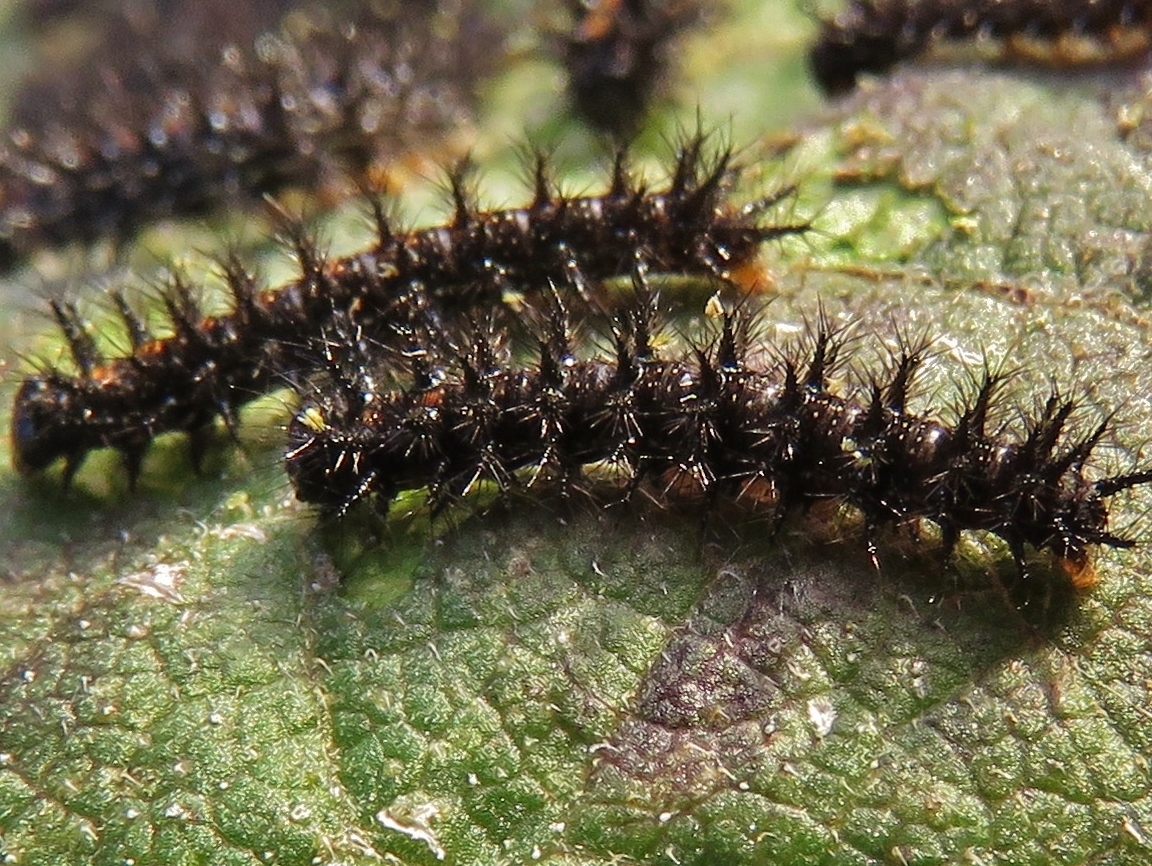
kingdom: Animalia
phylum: Arthropoda
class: Insecta
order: Lepidoptera
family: Nymphalidae
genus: Chlosyne
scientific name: Chlosyne lacinia
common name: Bordered patch
